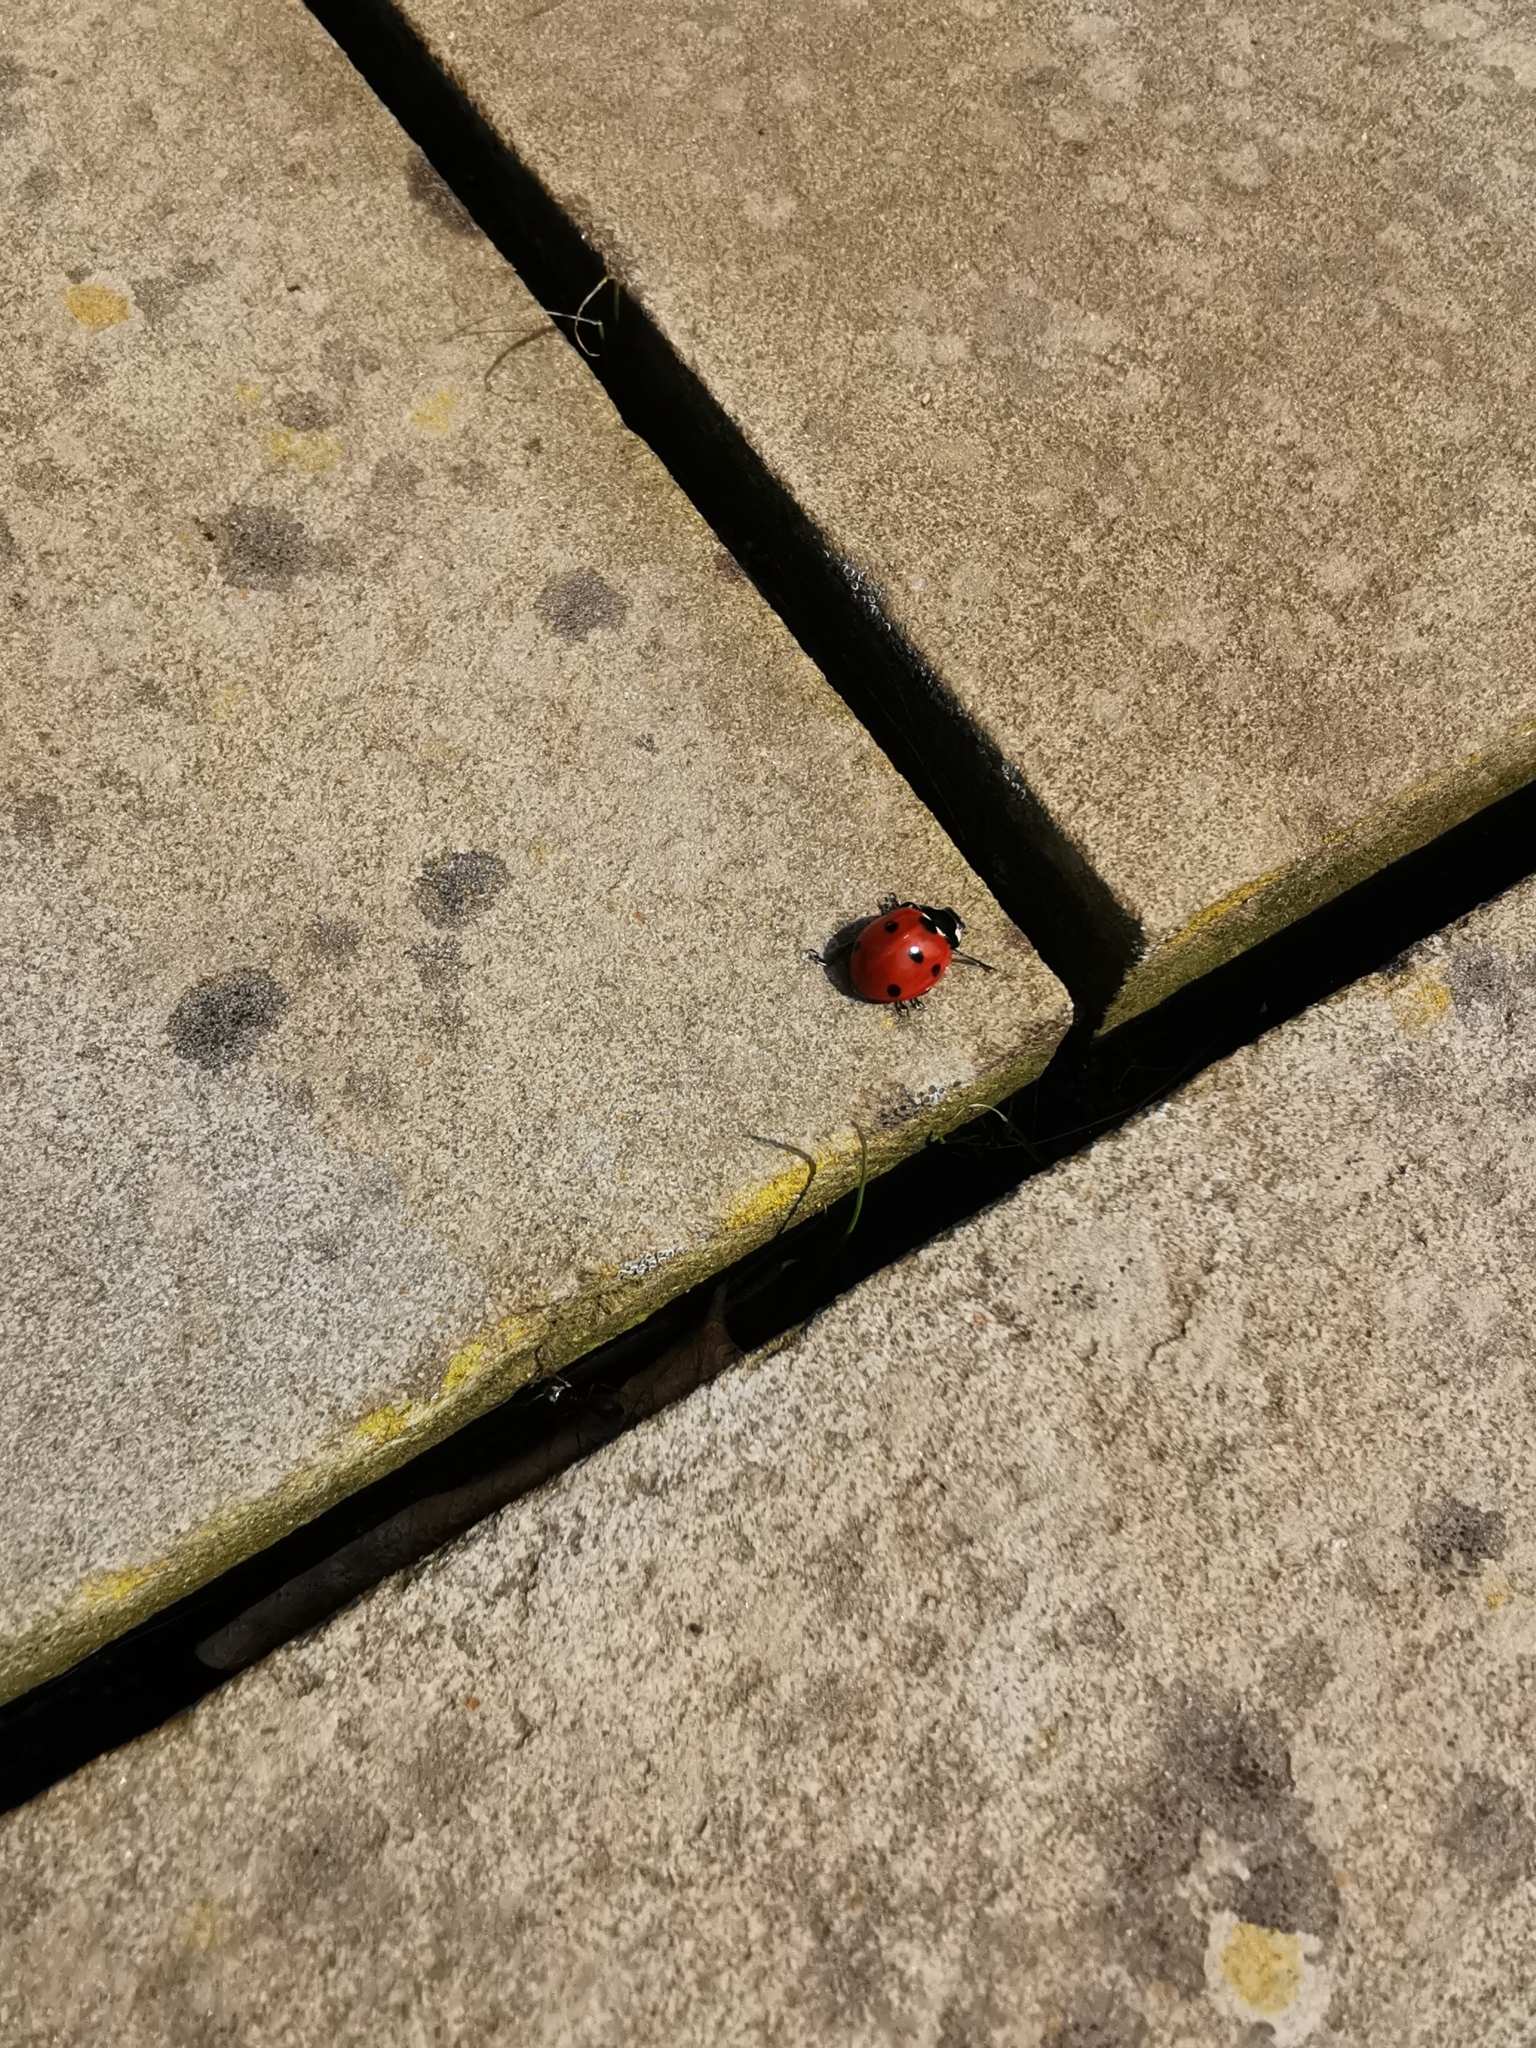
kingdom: Animalia
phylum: Arthropoda
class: Insecta
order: Coleoptera
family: Coccinellidae
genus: Coccinella
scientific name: Coccinella septempunctata
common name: Sevenspotted lady beetle
